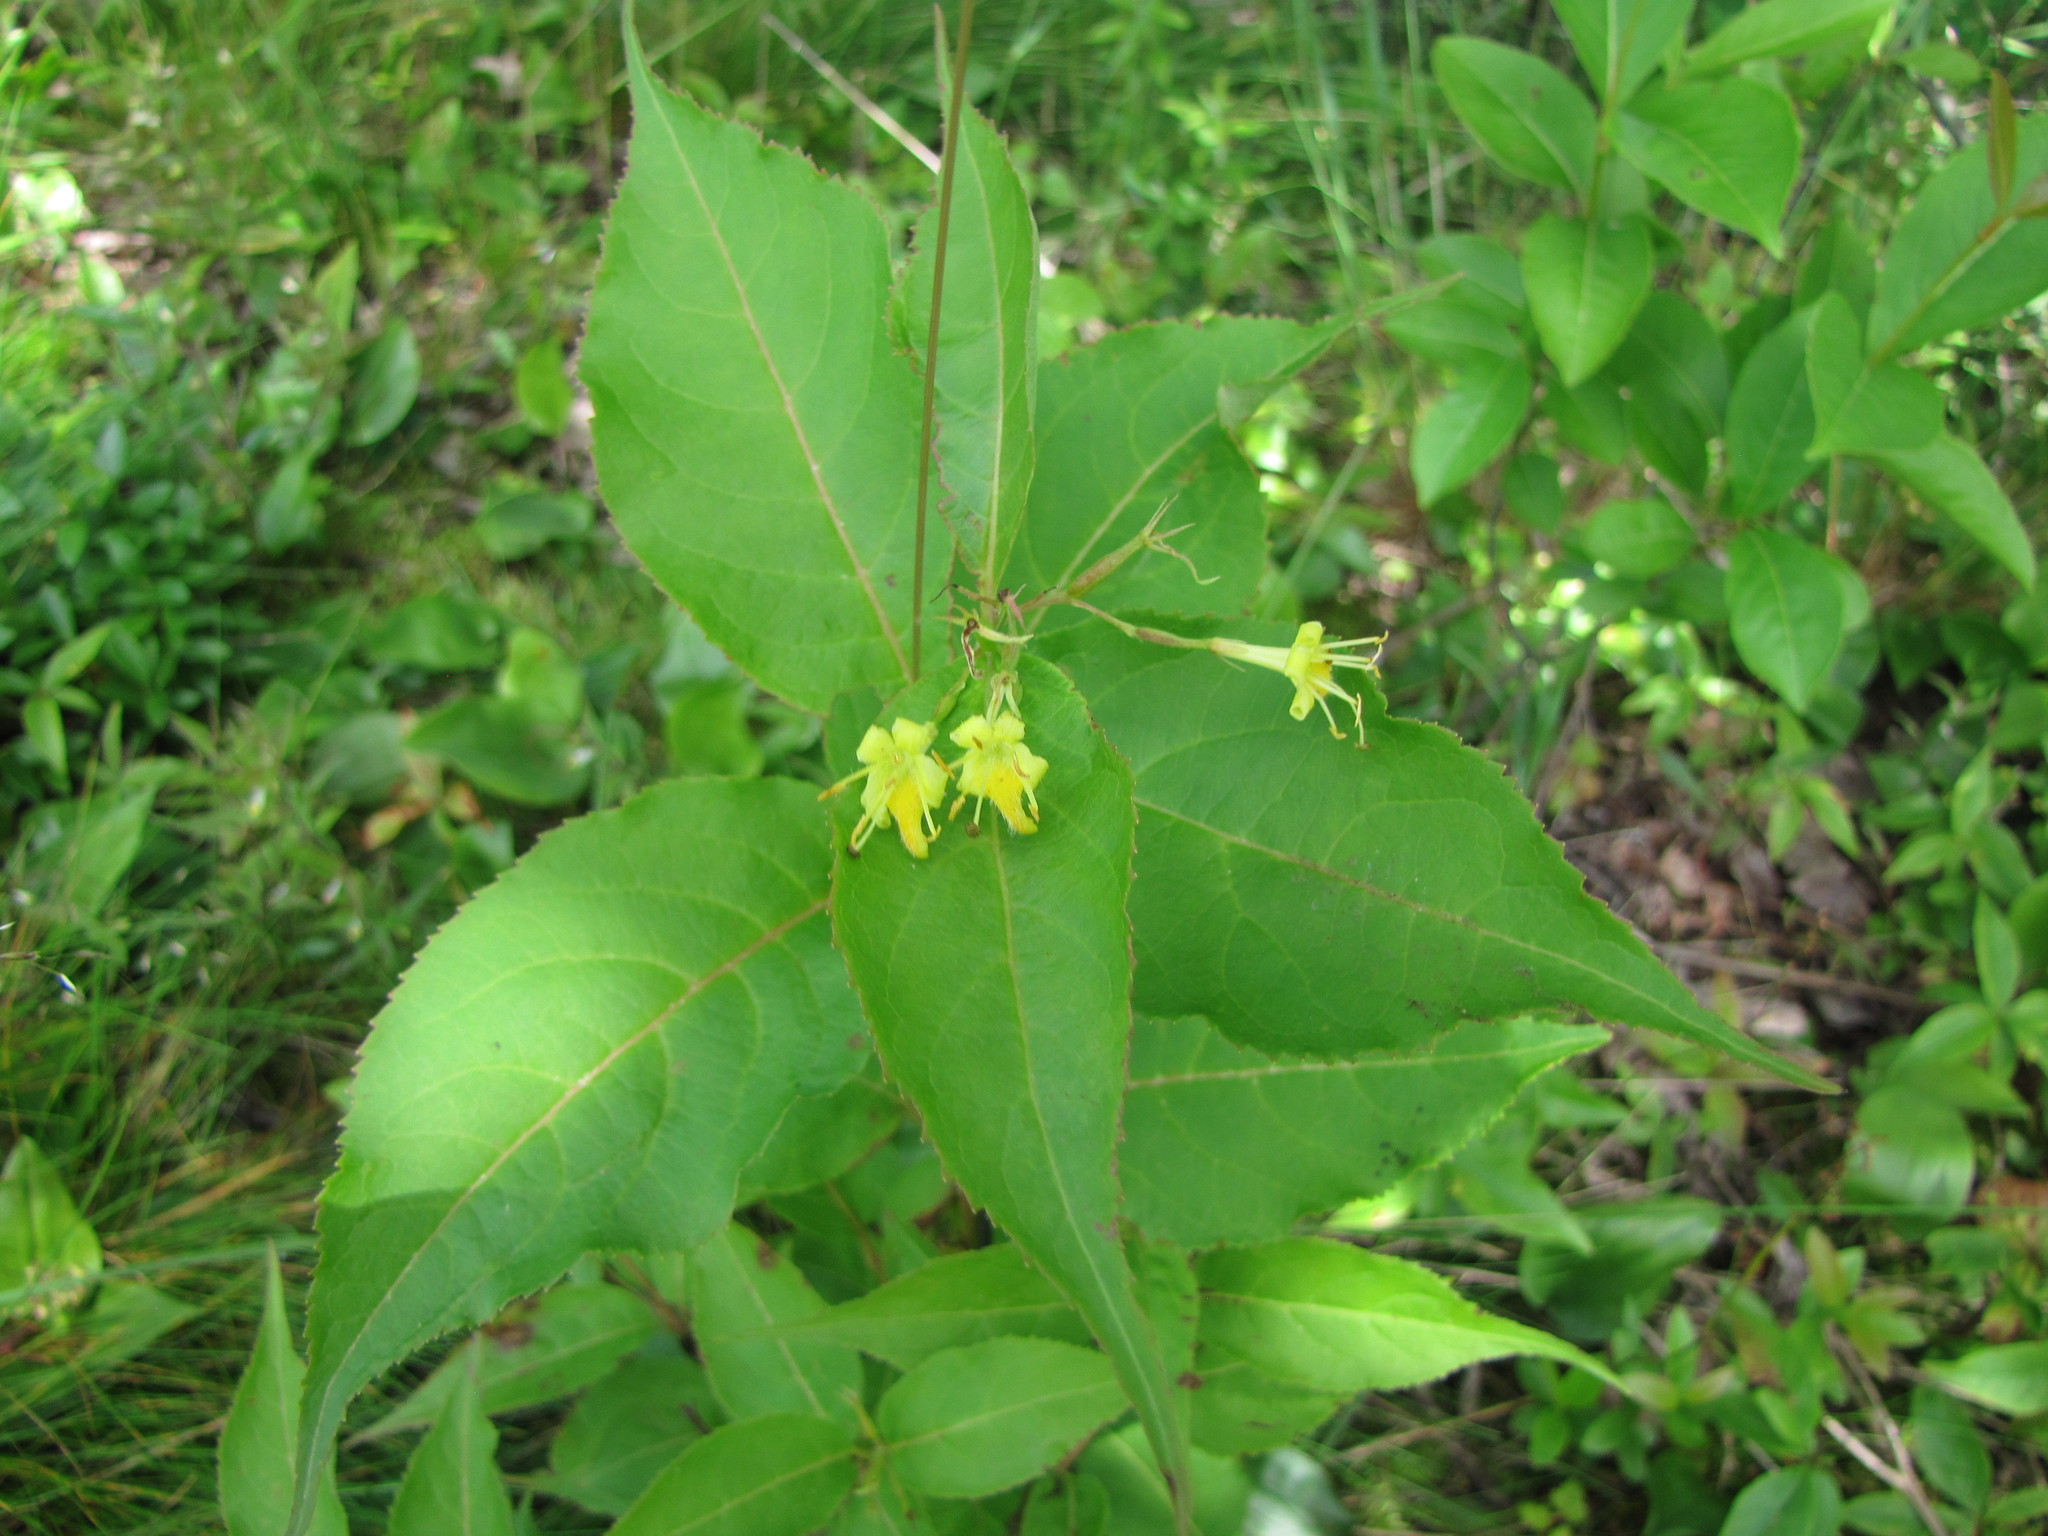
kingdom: Plantae
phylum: Tracheophyta
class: Magnoliopsida
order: Dipsacales
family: Caprifoliaceae
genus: Diervilla
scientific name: Diervilla lonicera
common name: Bush-honeysuckle
